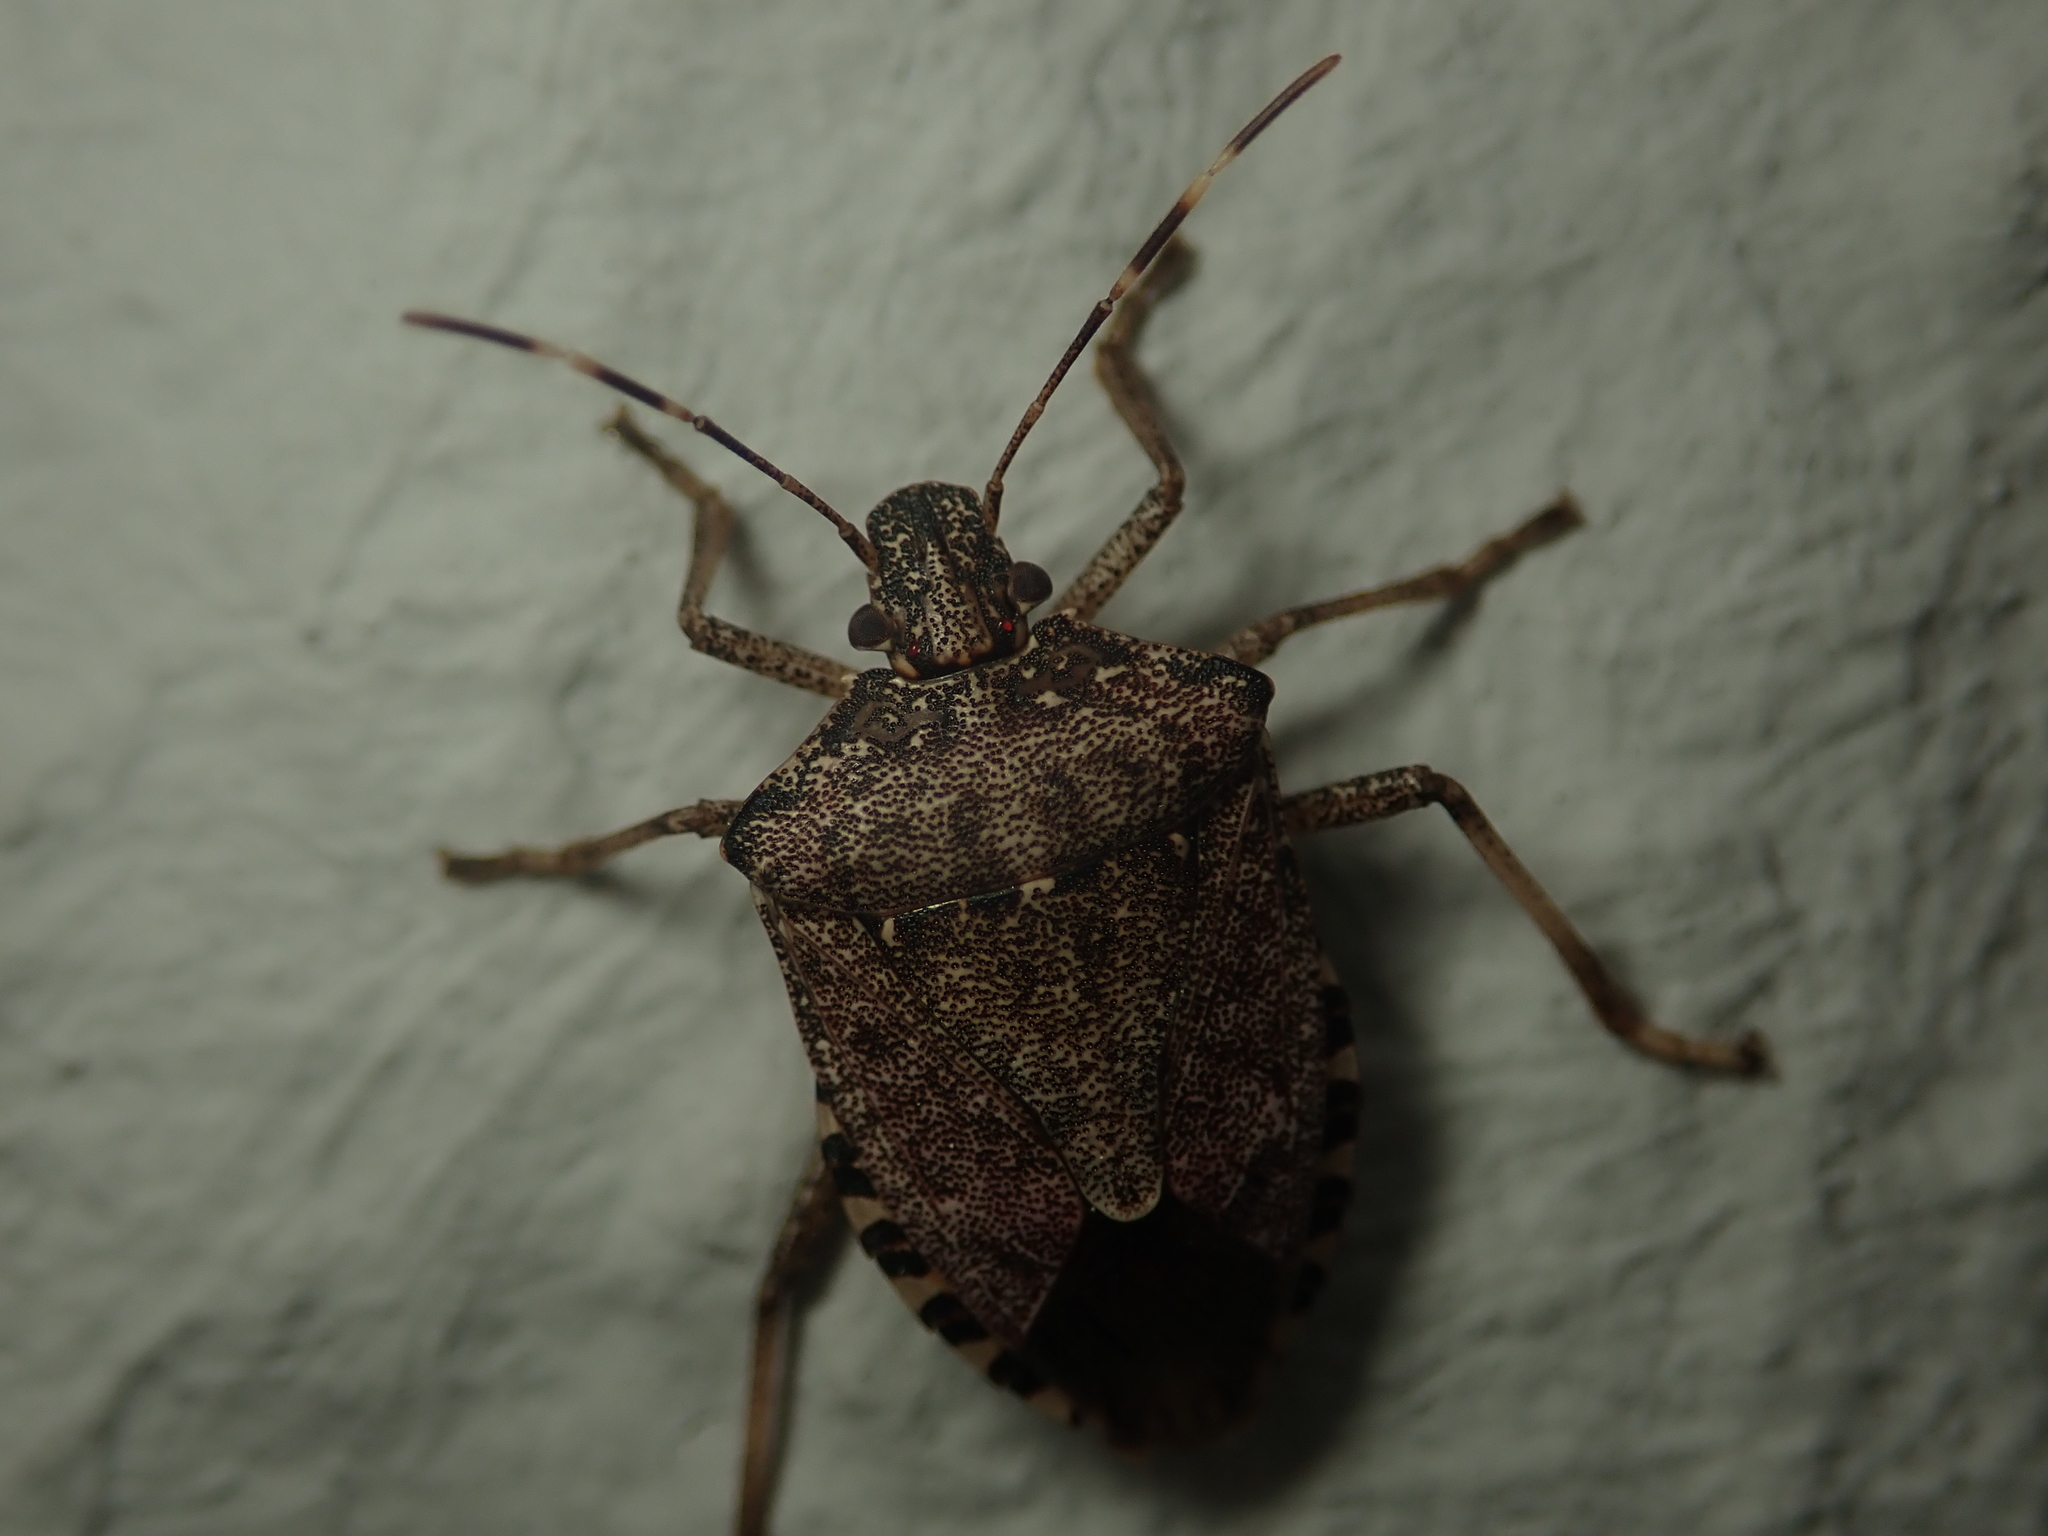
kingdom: Animalia
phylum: Arthropoda
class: Insecta
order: Hemiptera
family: Pentatomidae
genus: Halyomorpha
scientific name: Halyomorpha halys
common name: Brown marmorated stink bug
